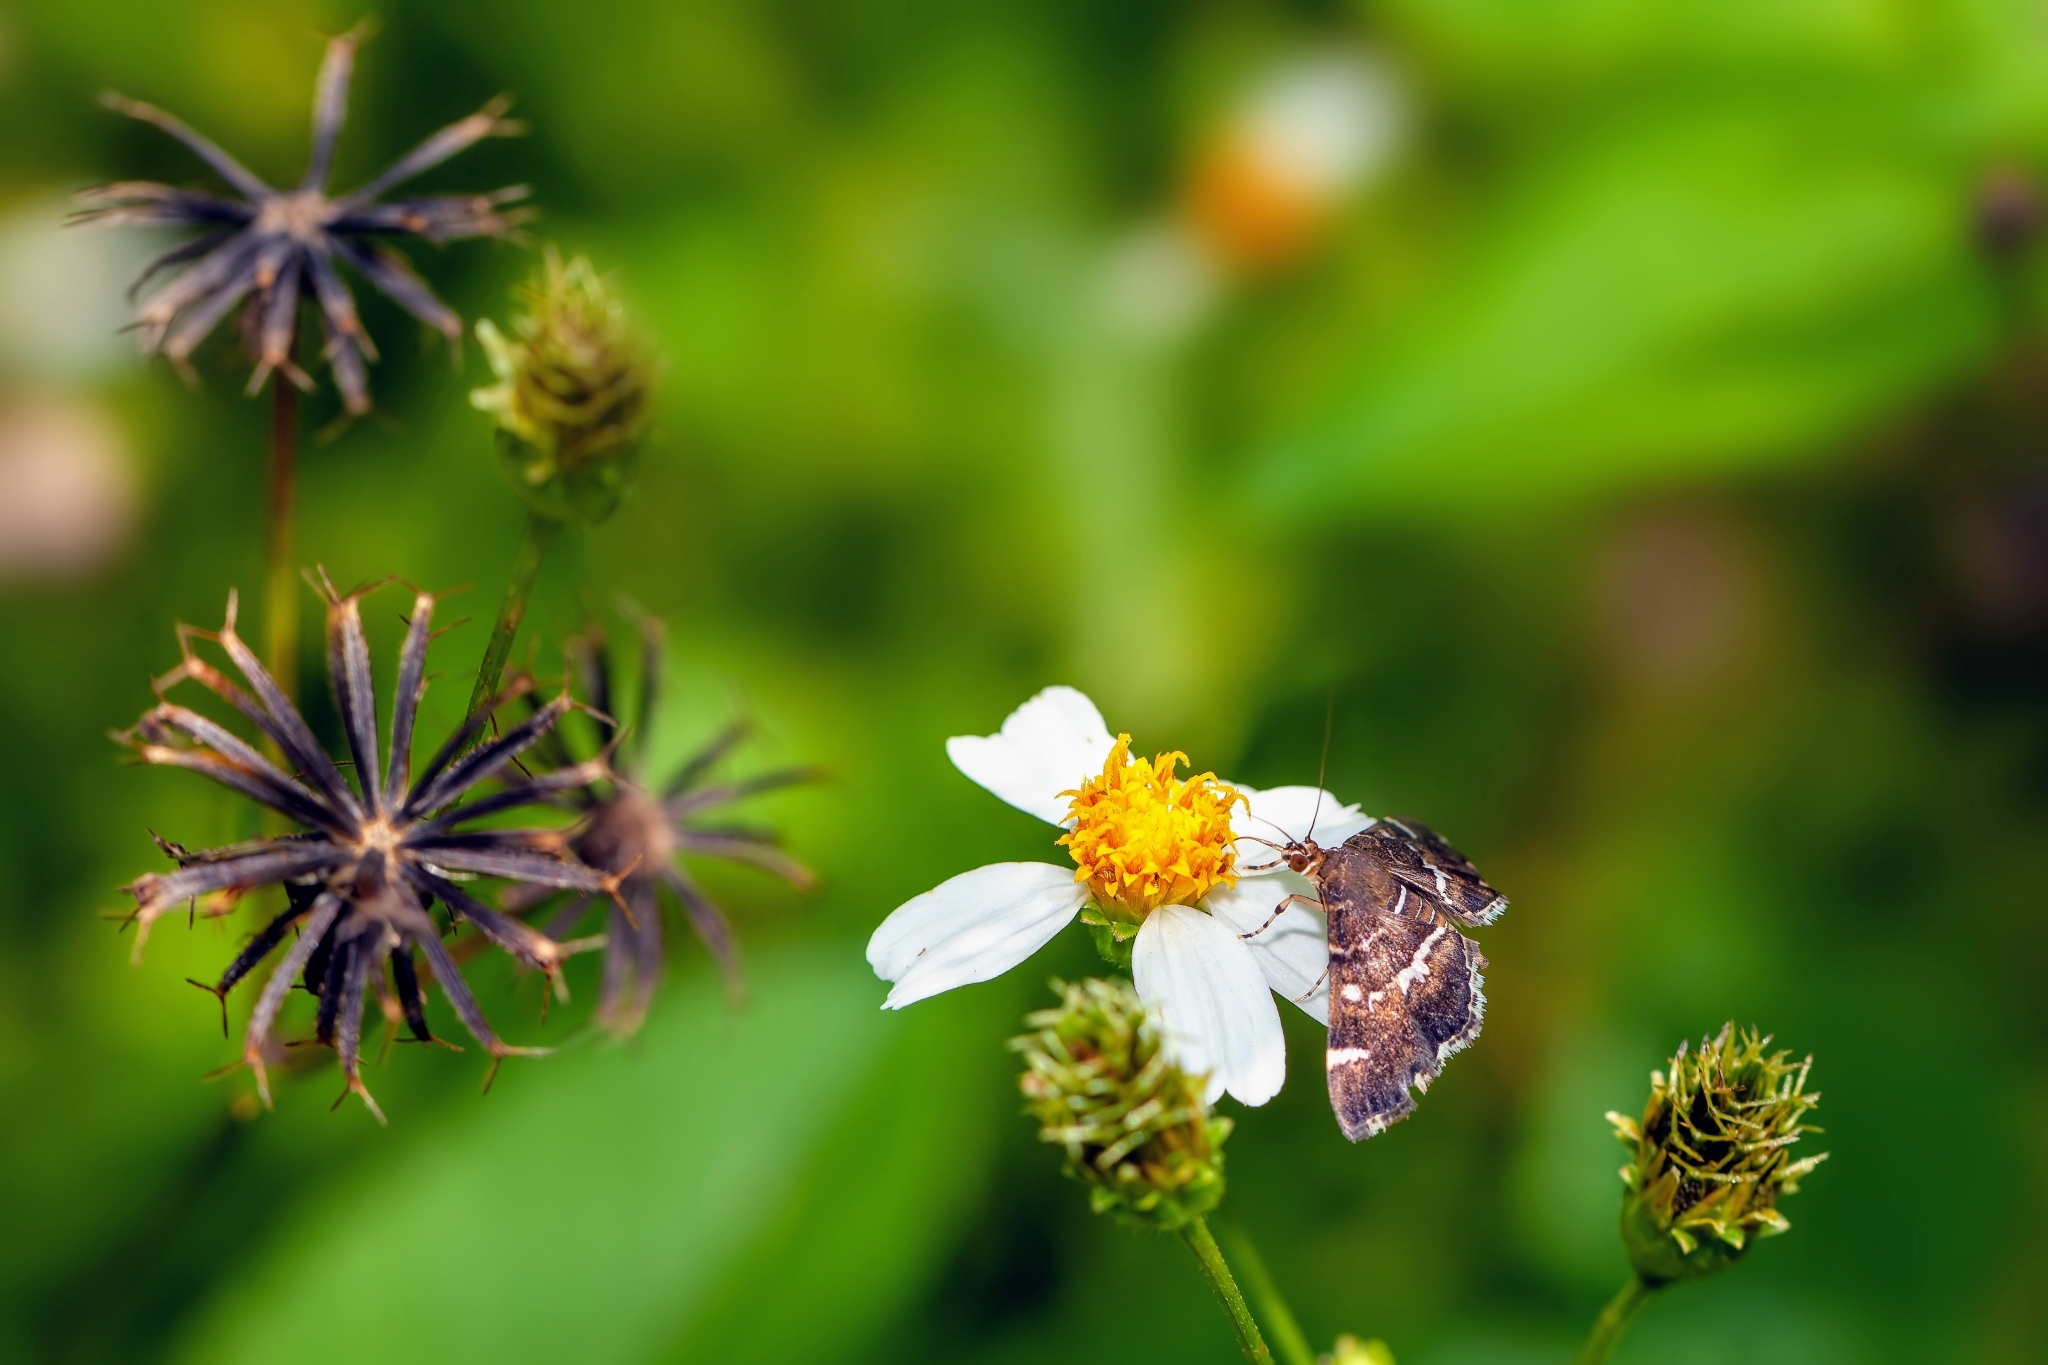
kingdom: Animalia
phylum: Arthropoda
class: Insecta
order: Lepidoptera
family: Crambidae
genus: Hymenia
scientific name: Hymenia perspectalis
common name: Spotted beet webworm
